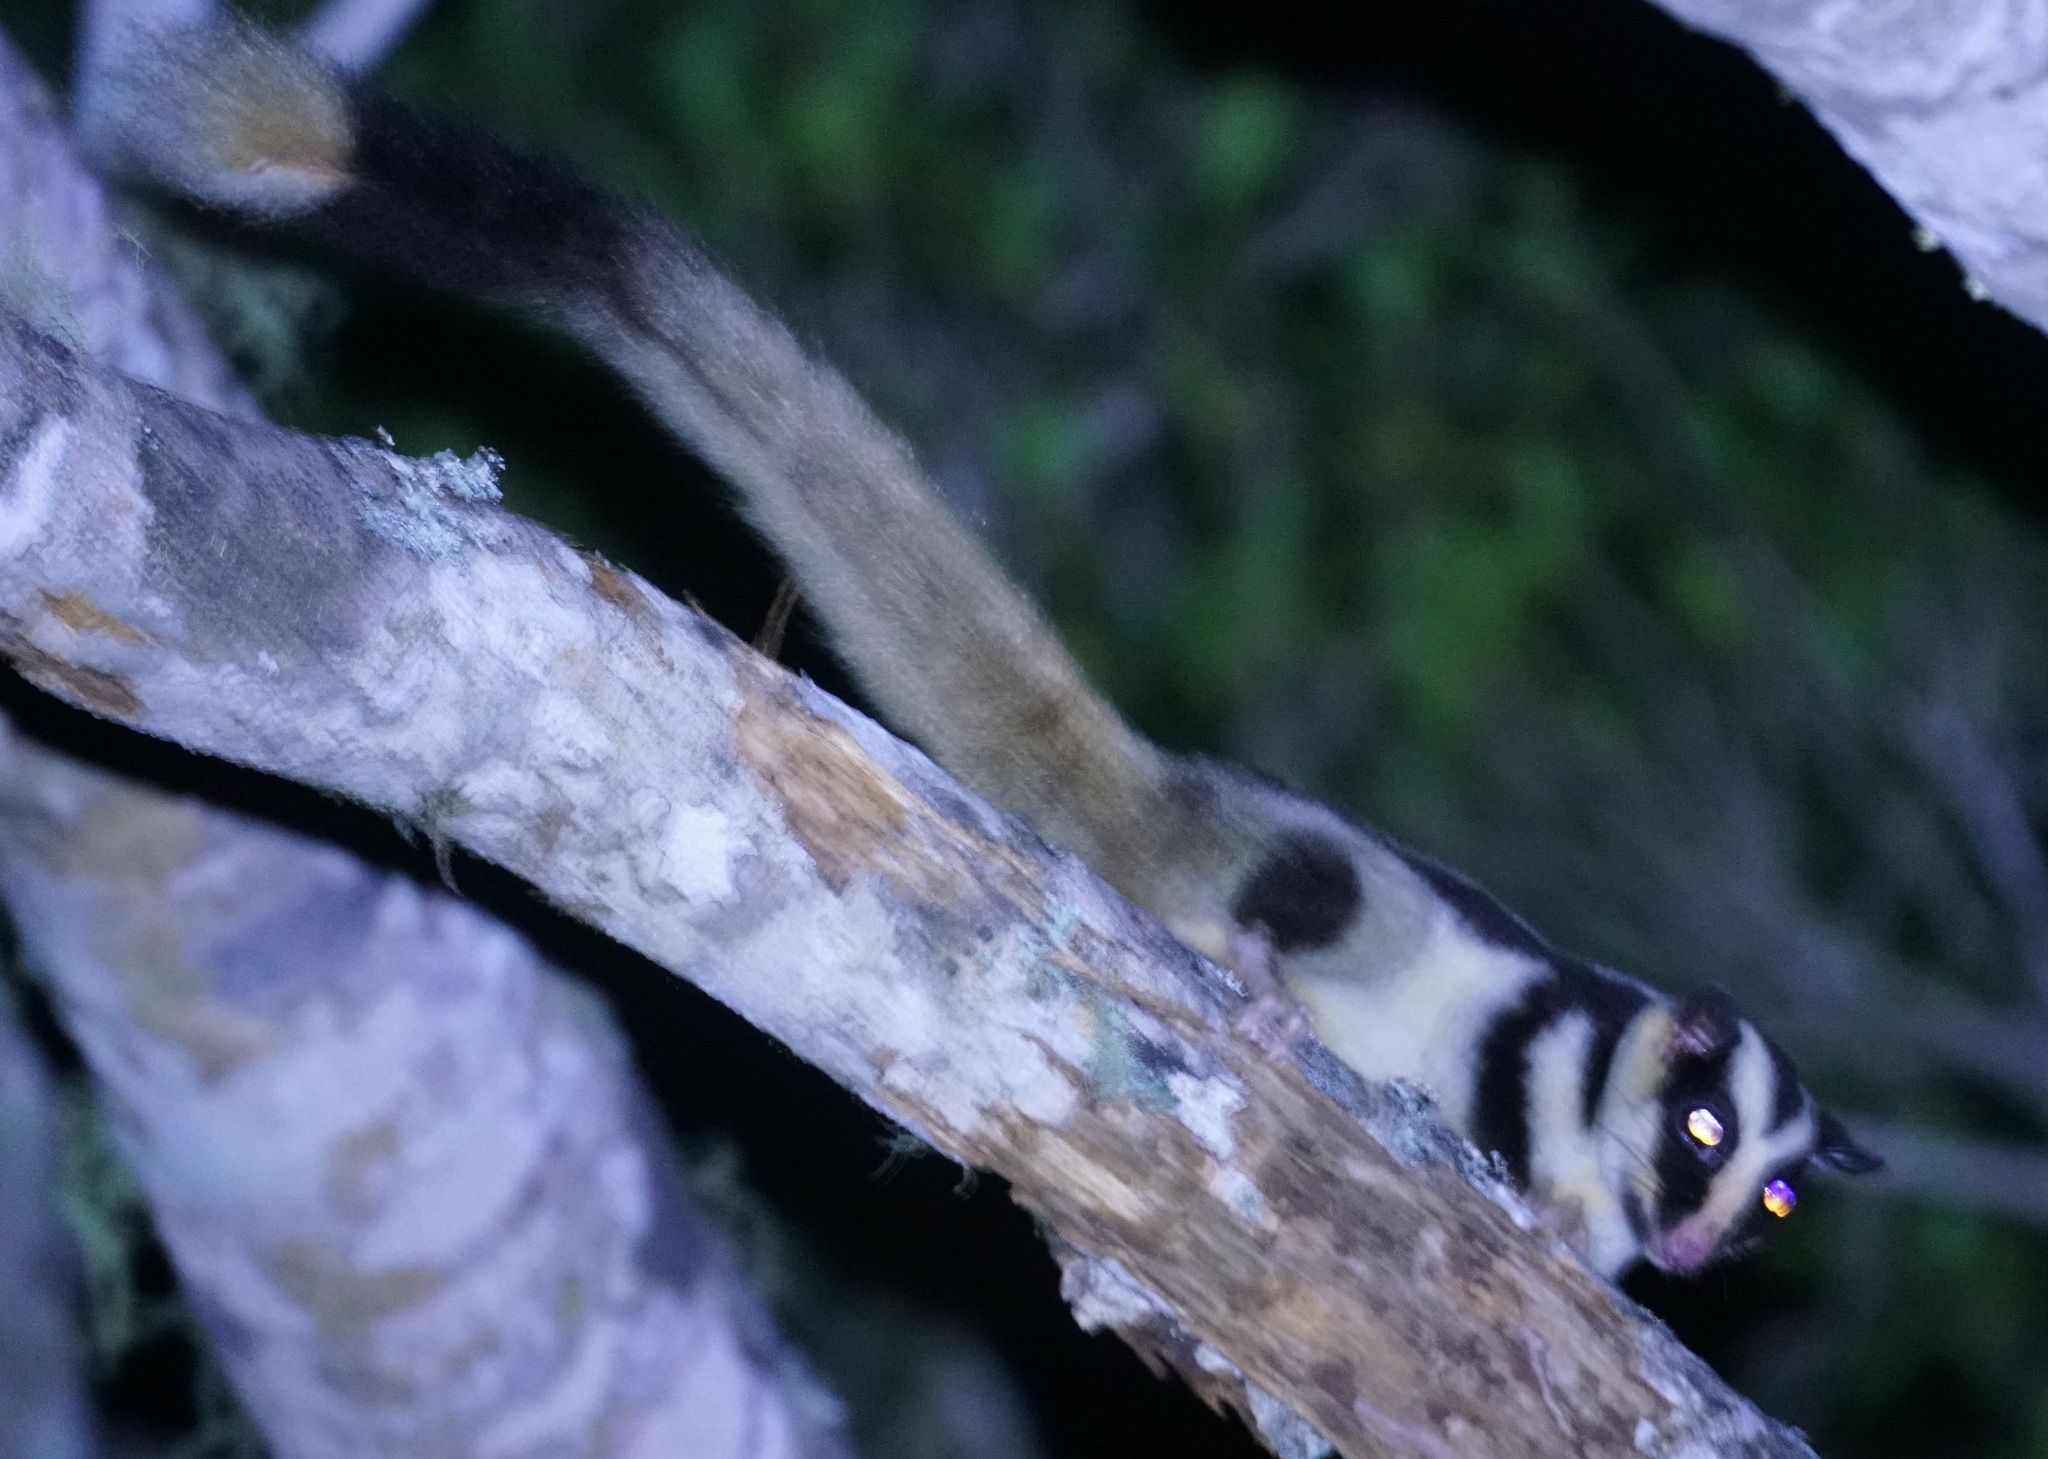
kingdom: Animalia
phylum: Chordata
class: Mammalia
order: Diprotodontia
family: Petauridae
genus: Dactylopsila
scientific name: Dactylopsila trivirgata
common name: Striped possum
